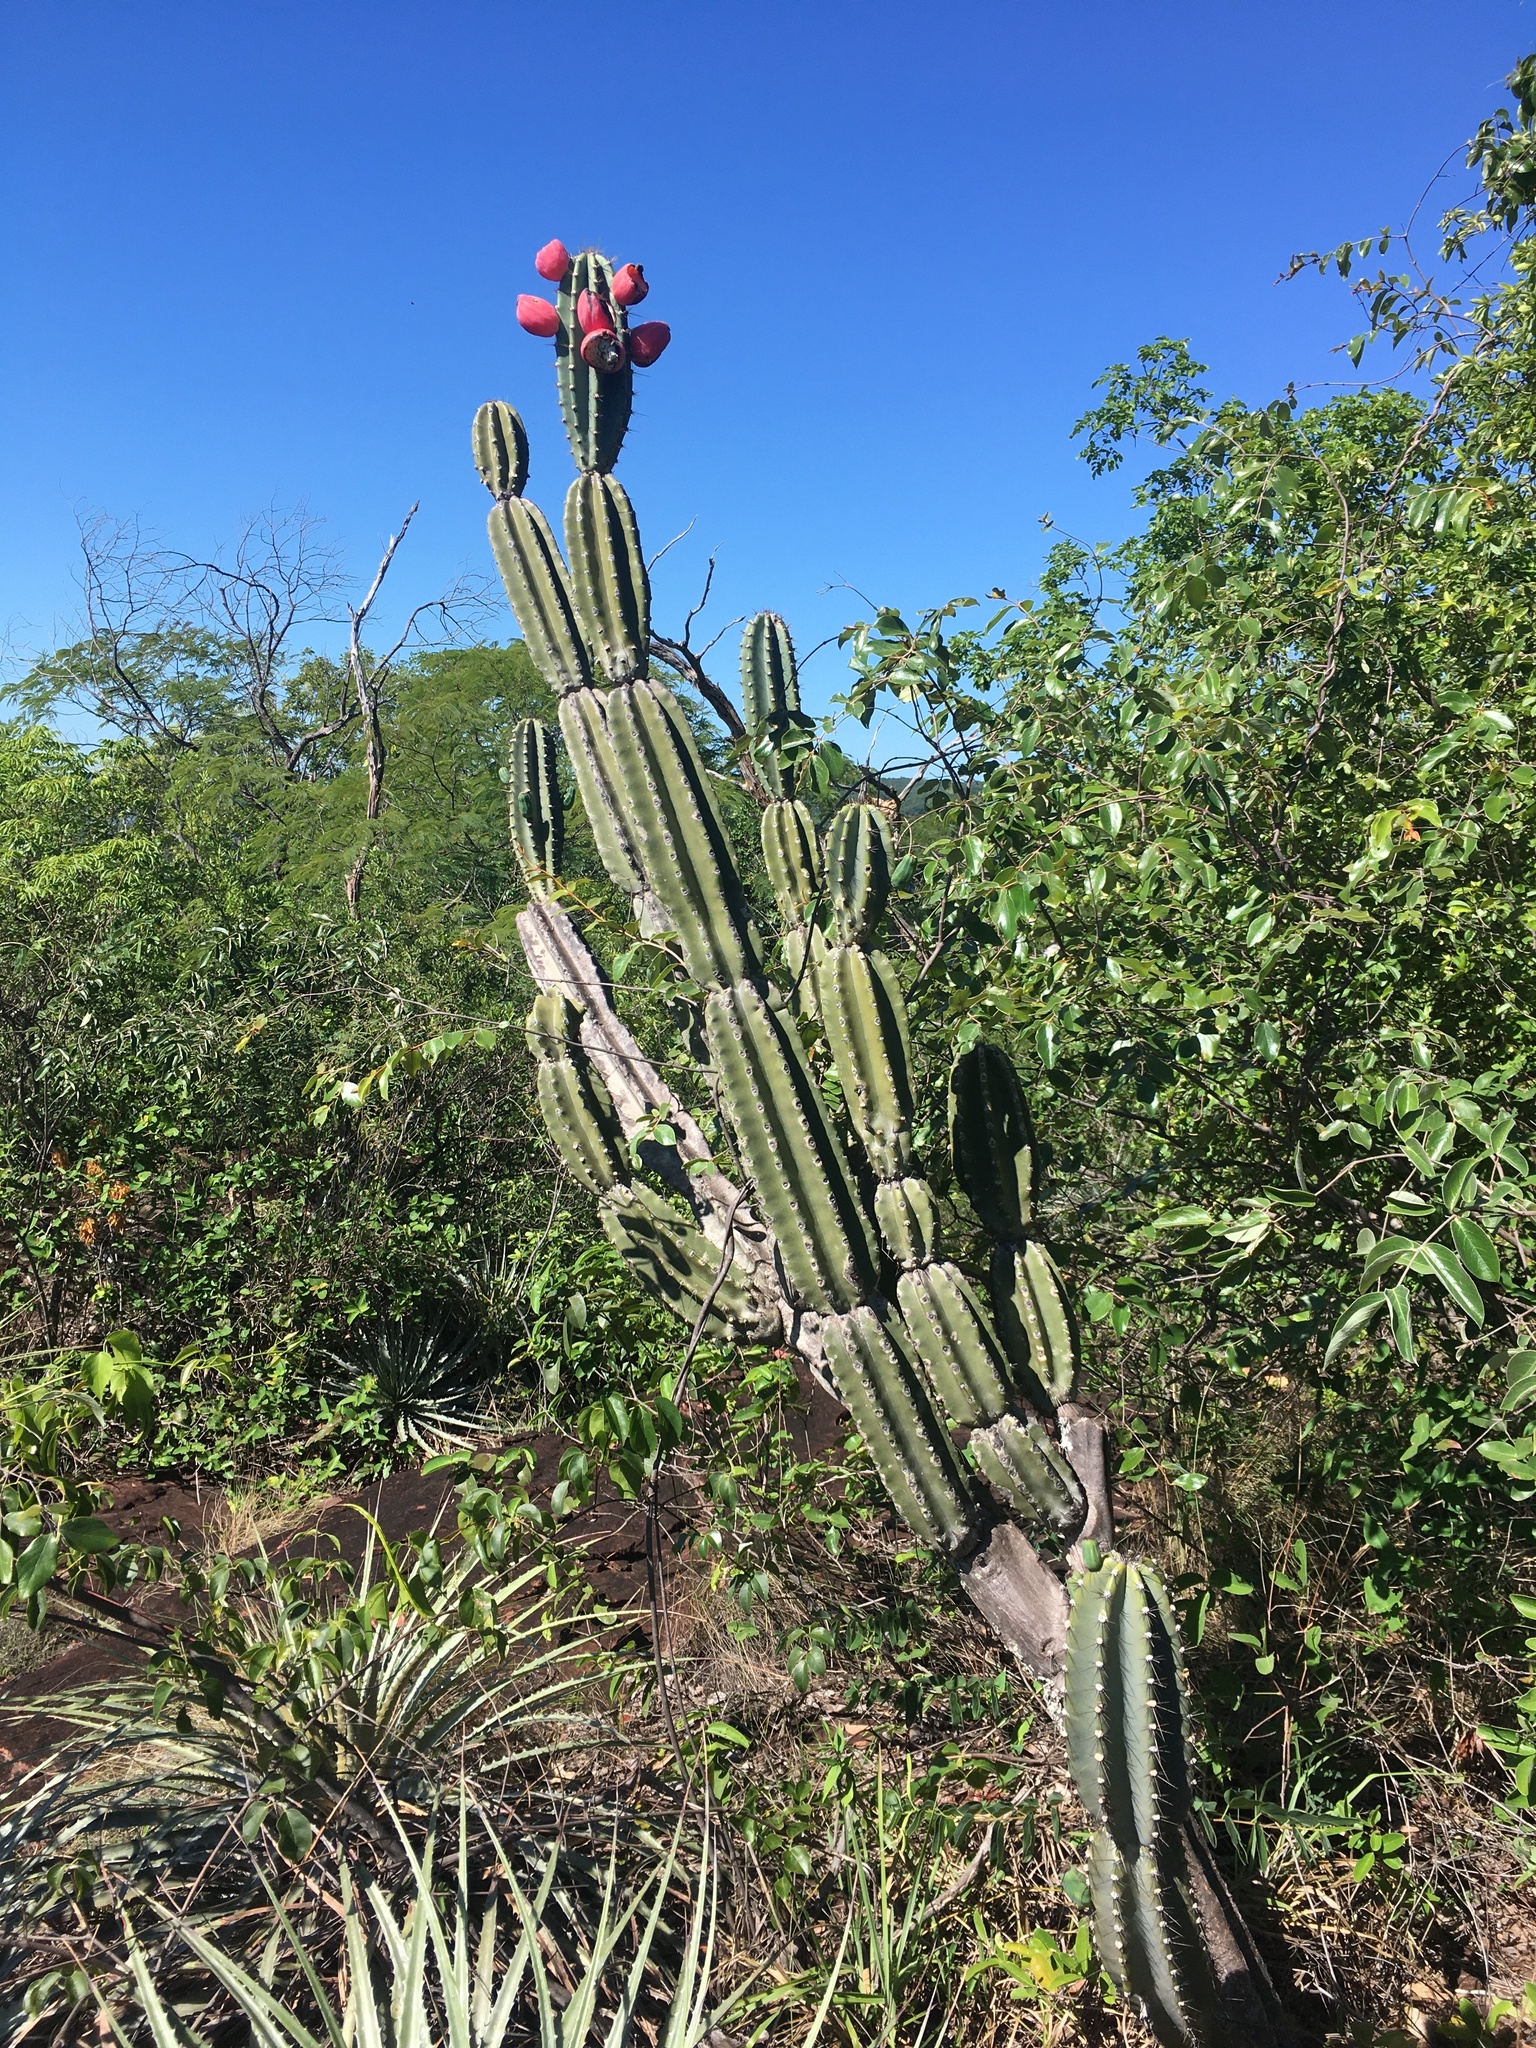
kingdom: Plantae
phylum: Tracheophyta
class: Magnoliopsida
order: Caryophyllales
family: Cactaceae
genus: Cereus
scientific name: Cereus bicolor
